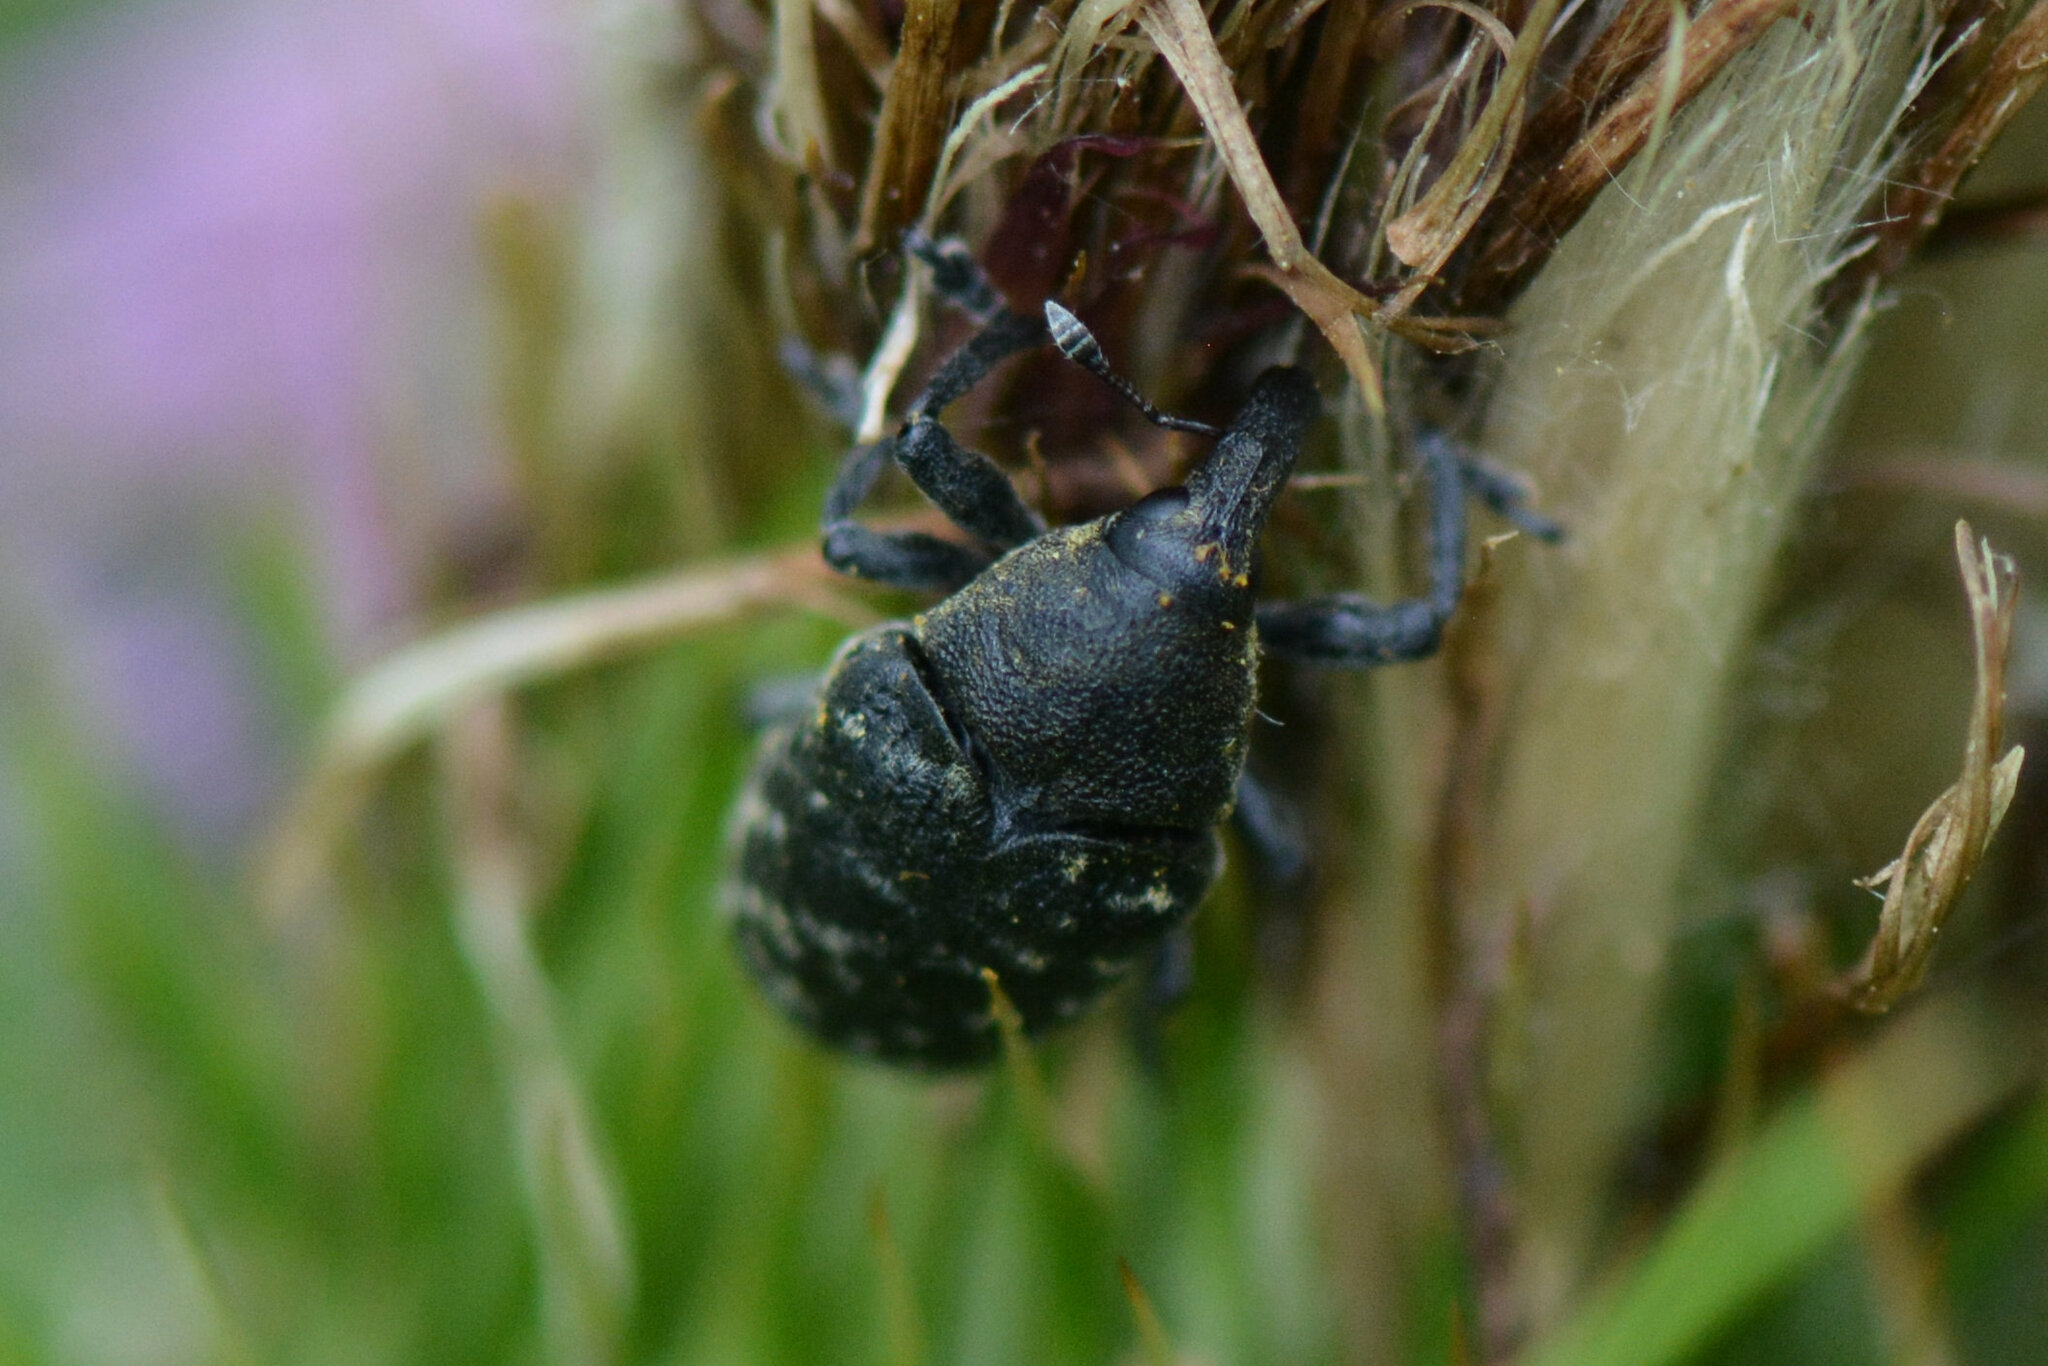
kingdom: Animalia
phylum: Arthropoda
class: Insecta
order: Coleoptera
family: Curculionidae
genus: Larinus
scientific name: Larinus turbinatus
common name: Weevil
